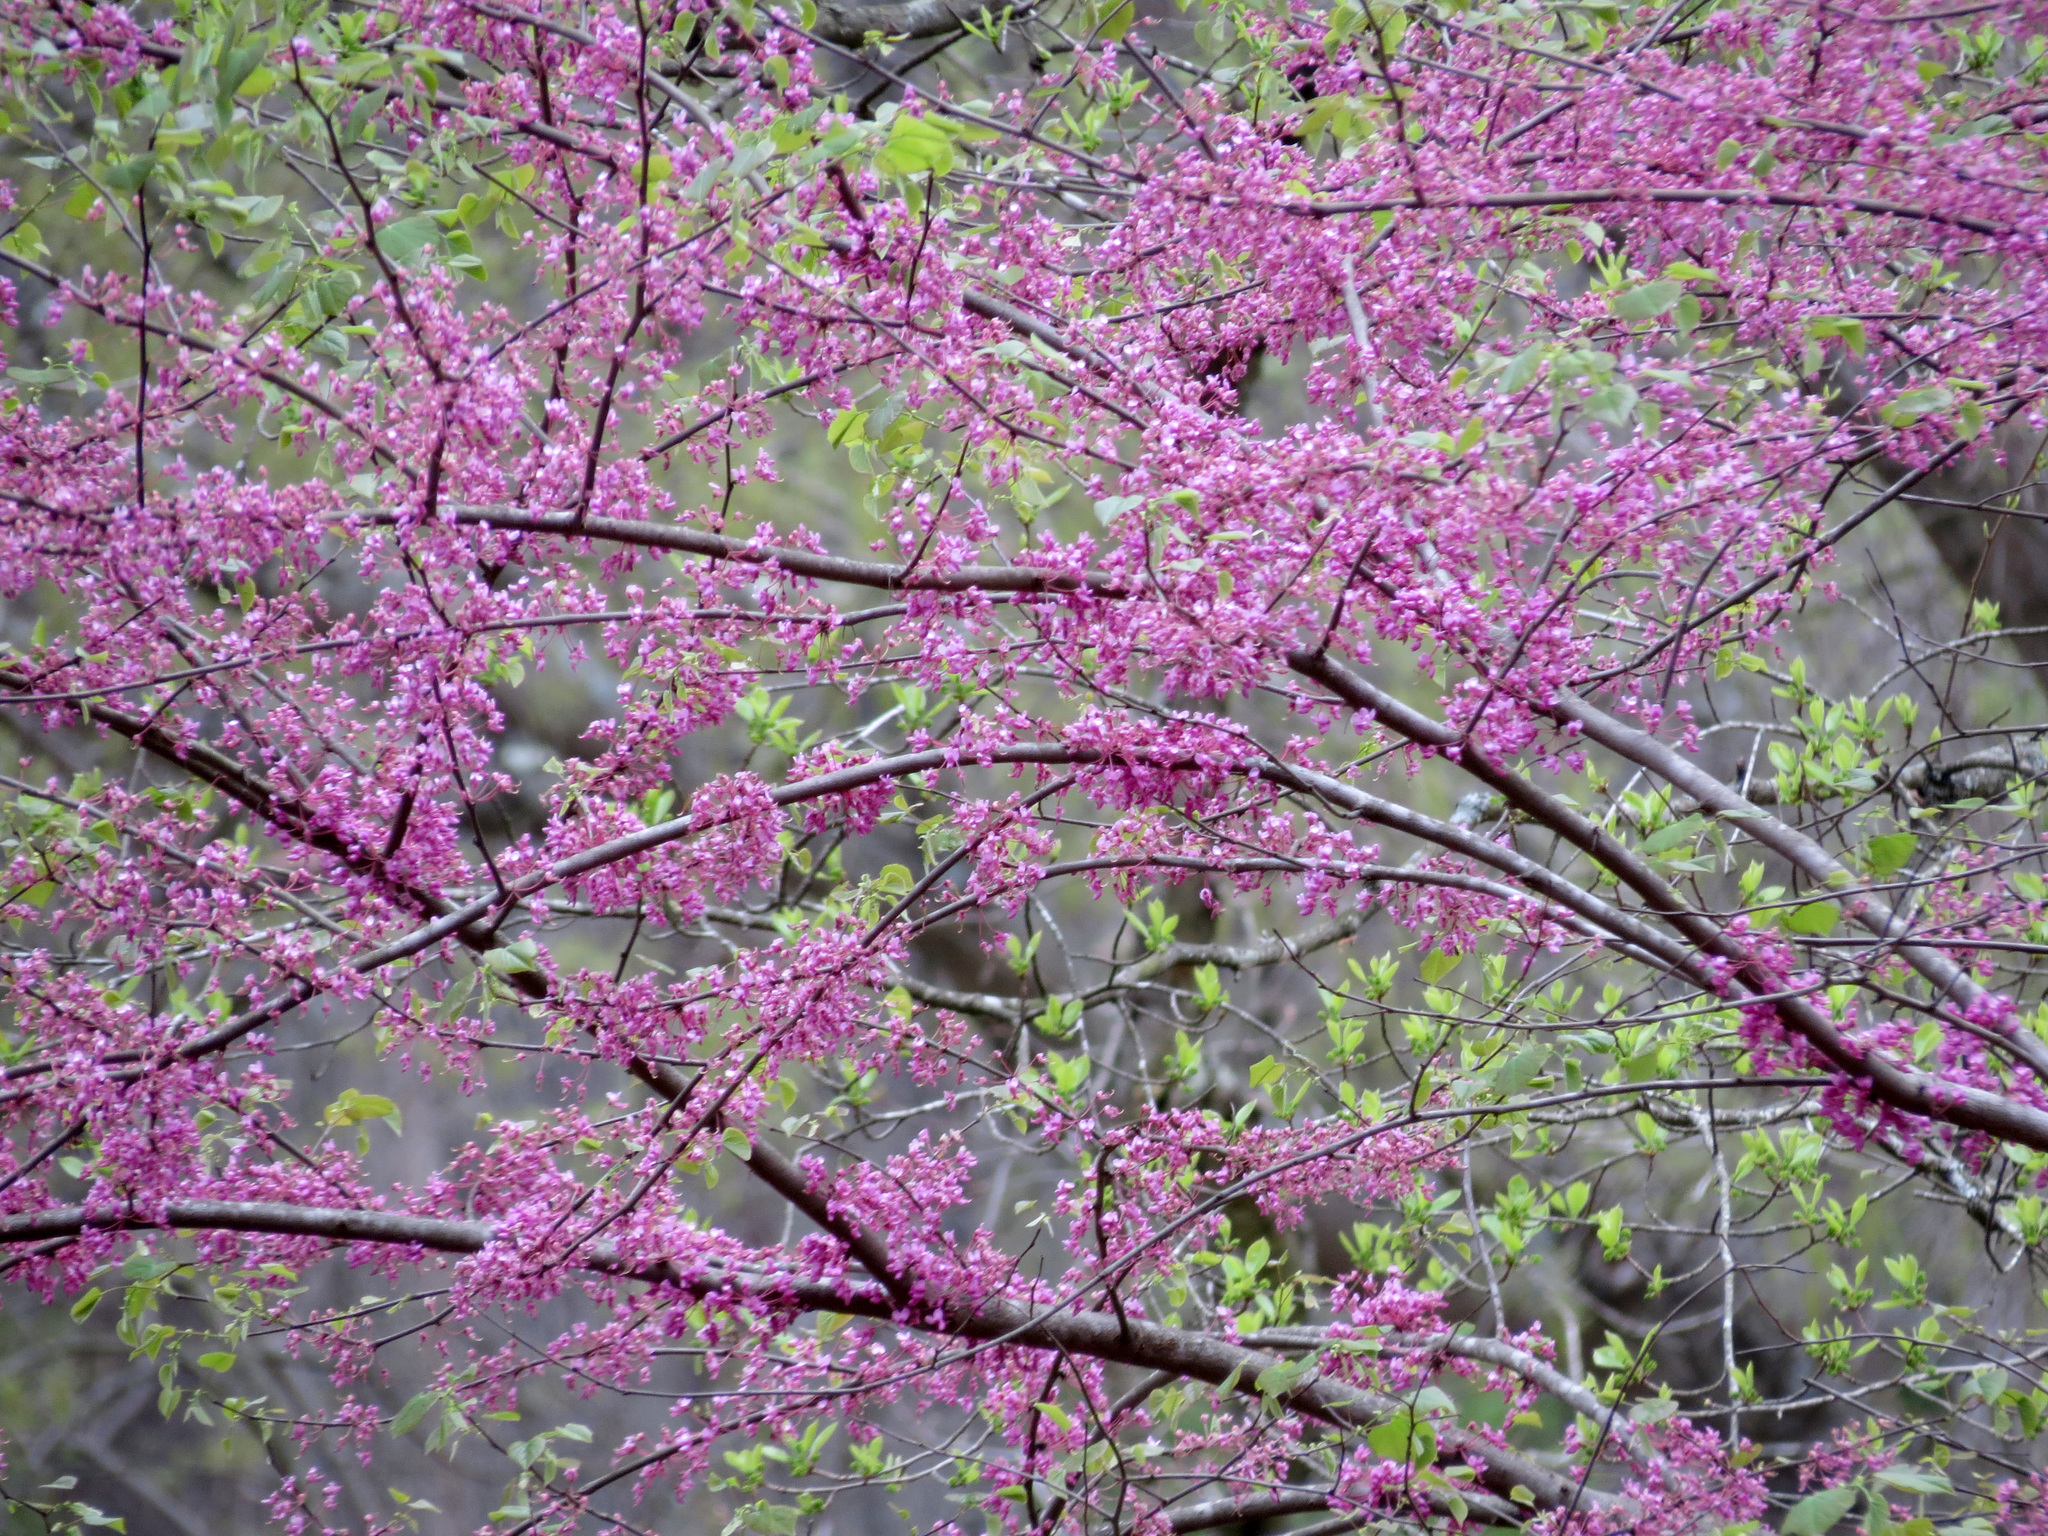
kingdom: Plantae
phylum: Tracheophyta
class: Magnoliopsida
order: Fabales
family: Fabaceae
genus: Cercis
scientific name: Cercis canadensis
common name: Eastern redbud
